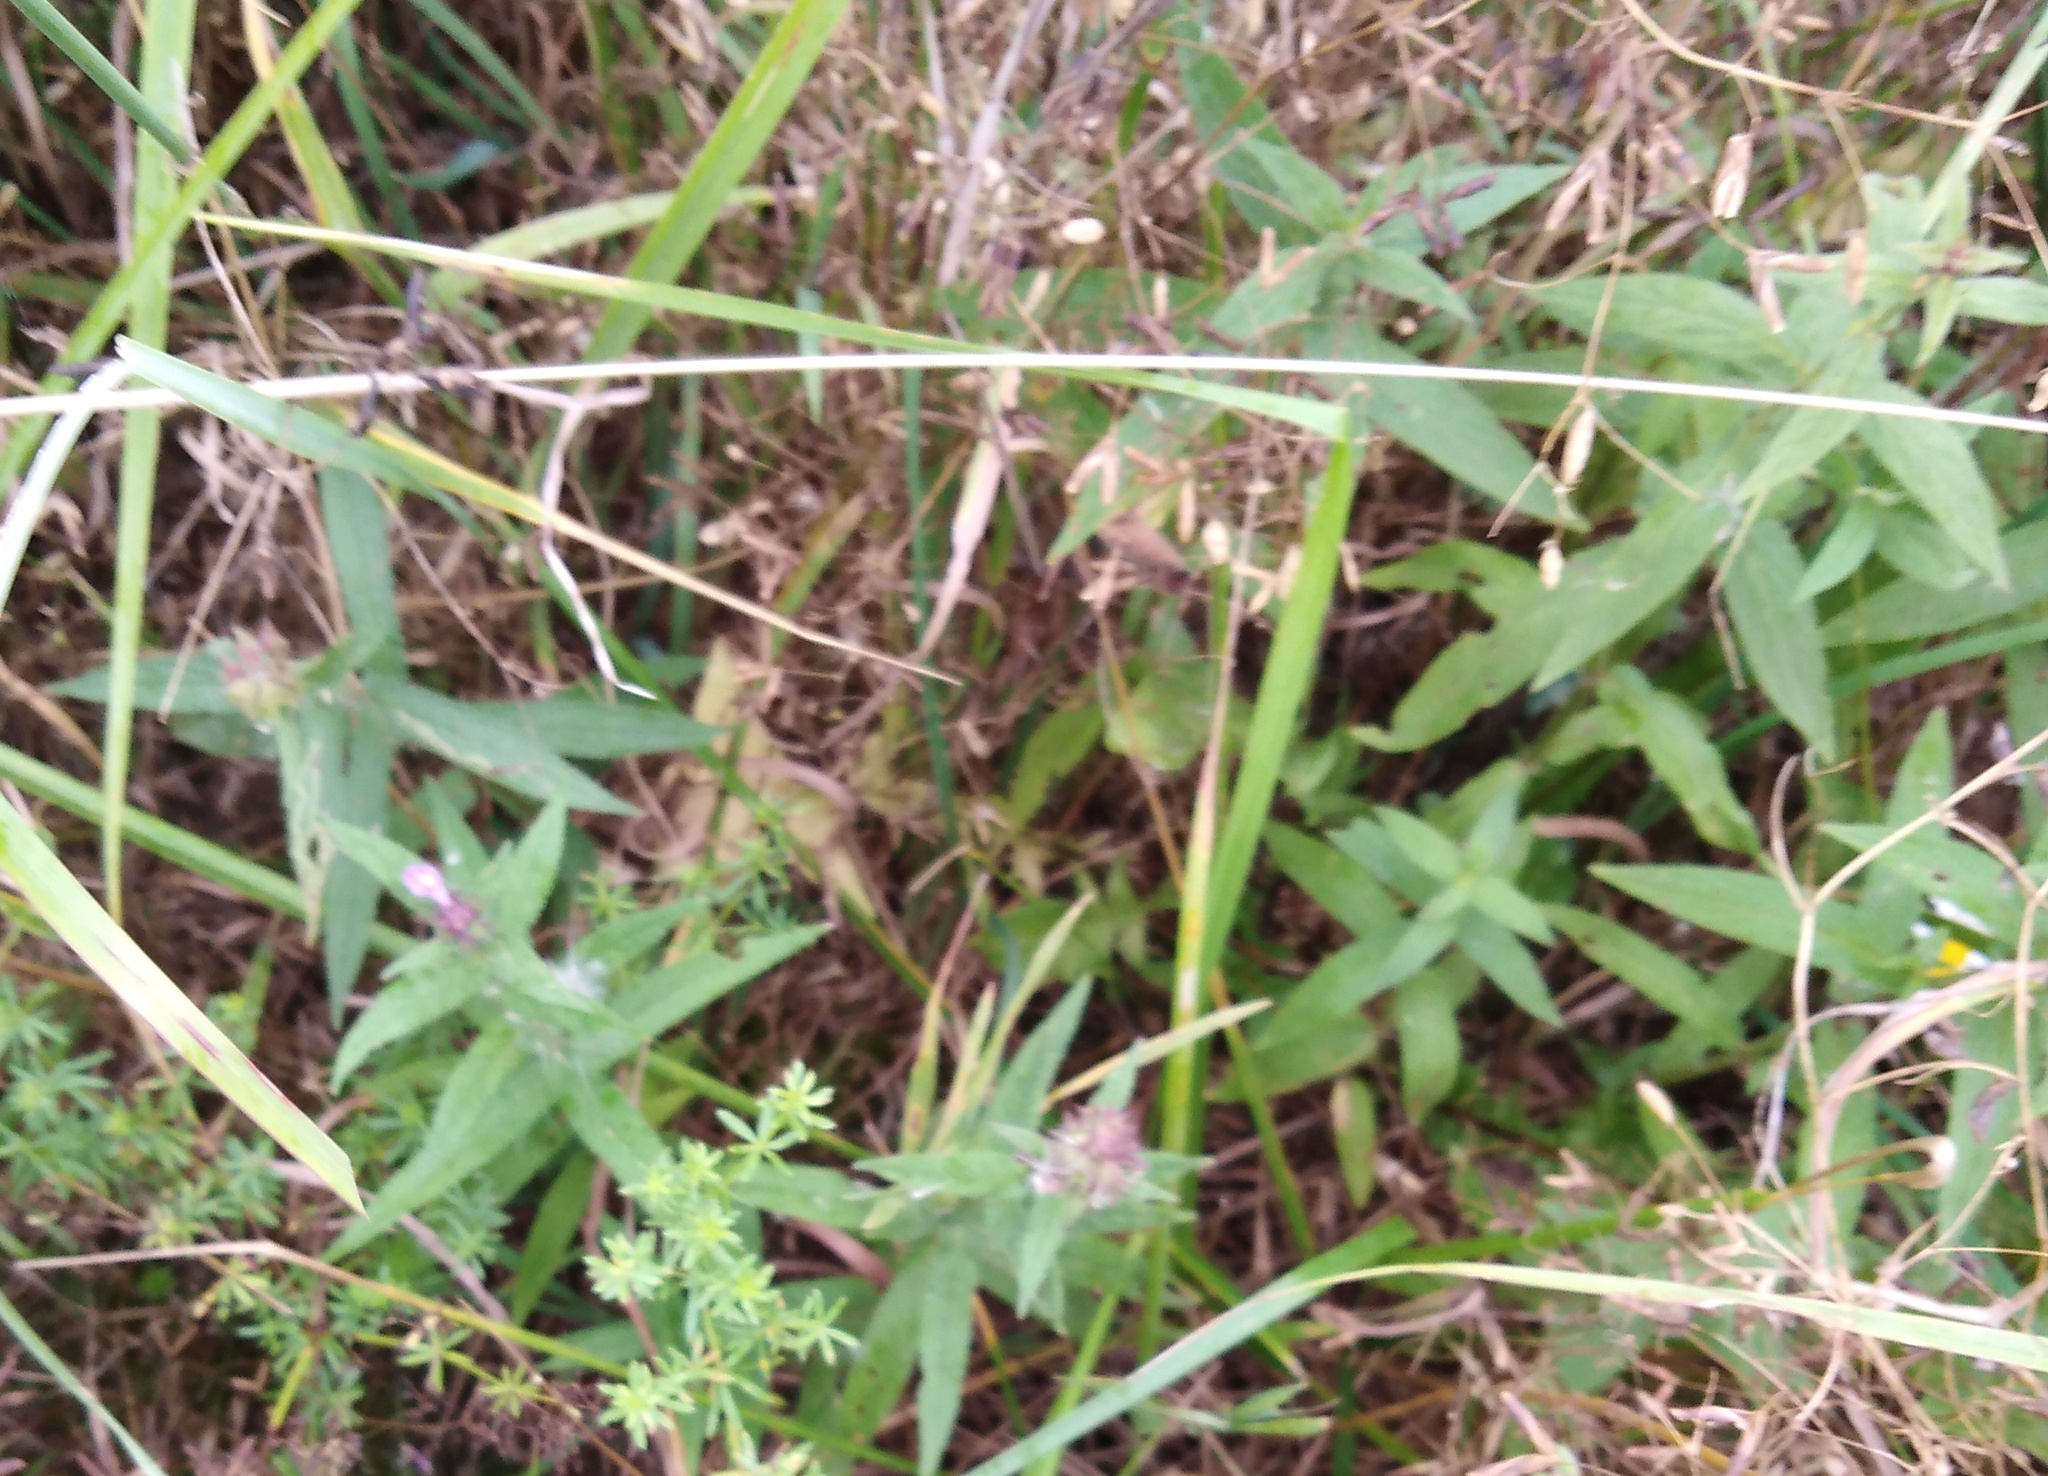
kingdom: Plantae
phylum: Tracheophyta
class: Magnoliopsida
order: Lamiales
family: Lamiaceae
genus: Stachys
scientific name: Stachys palustris
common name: Marsh woundwort
